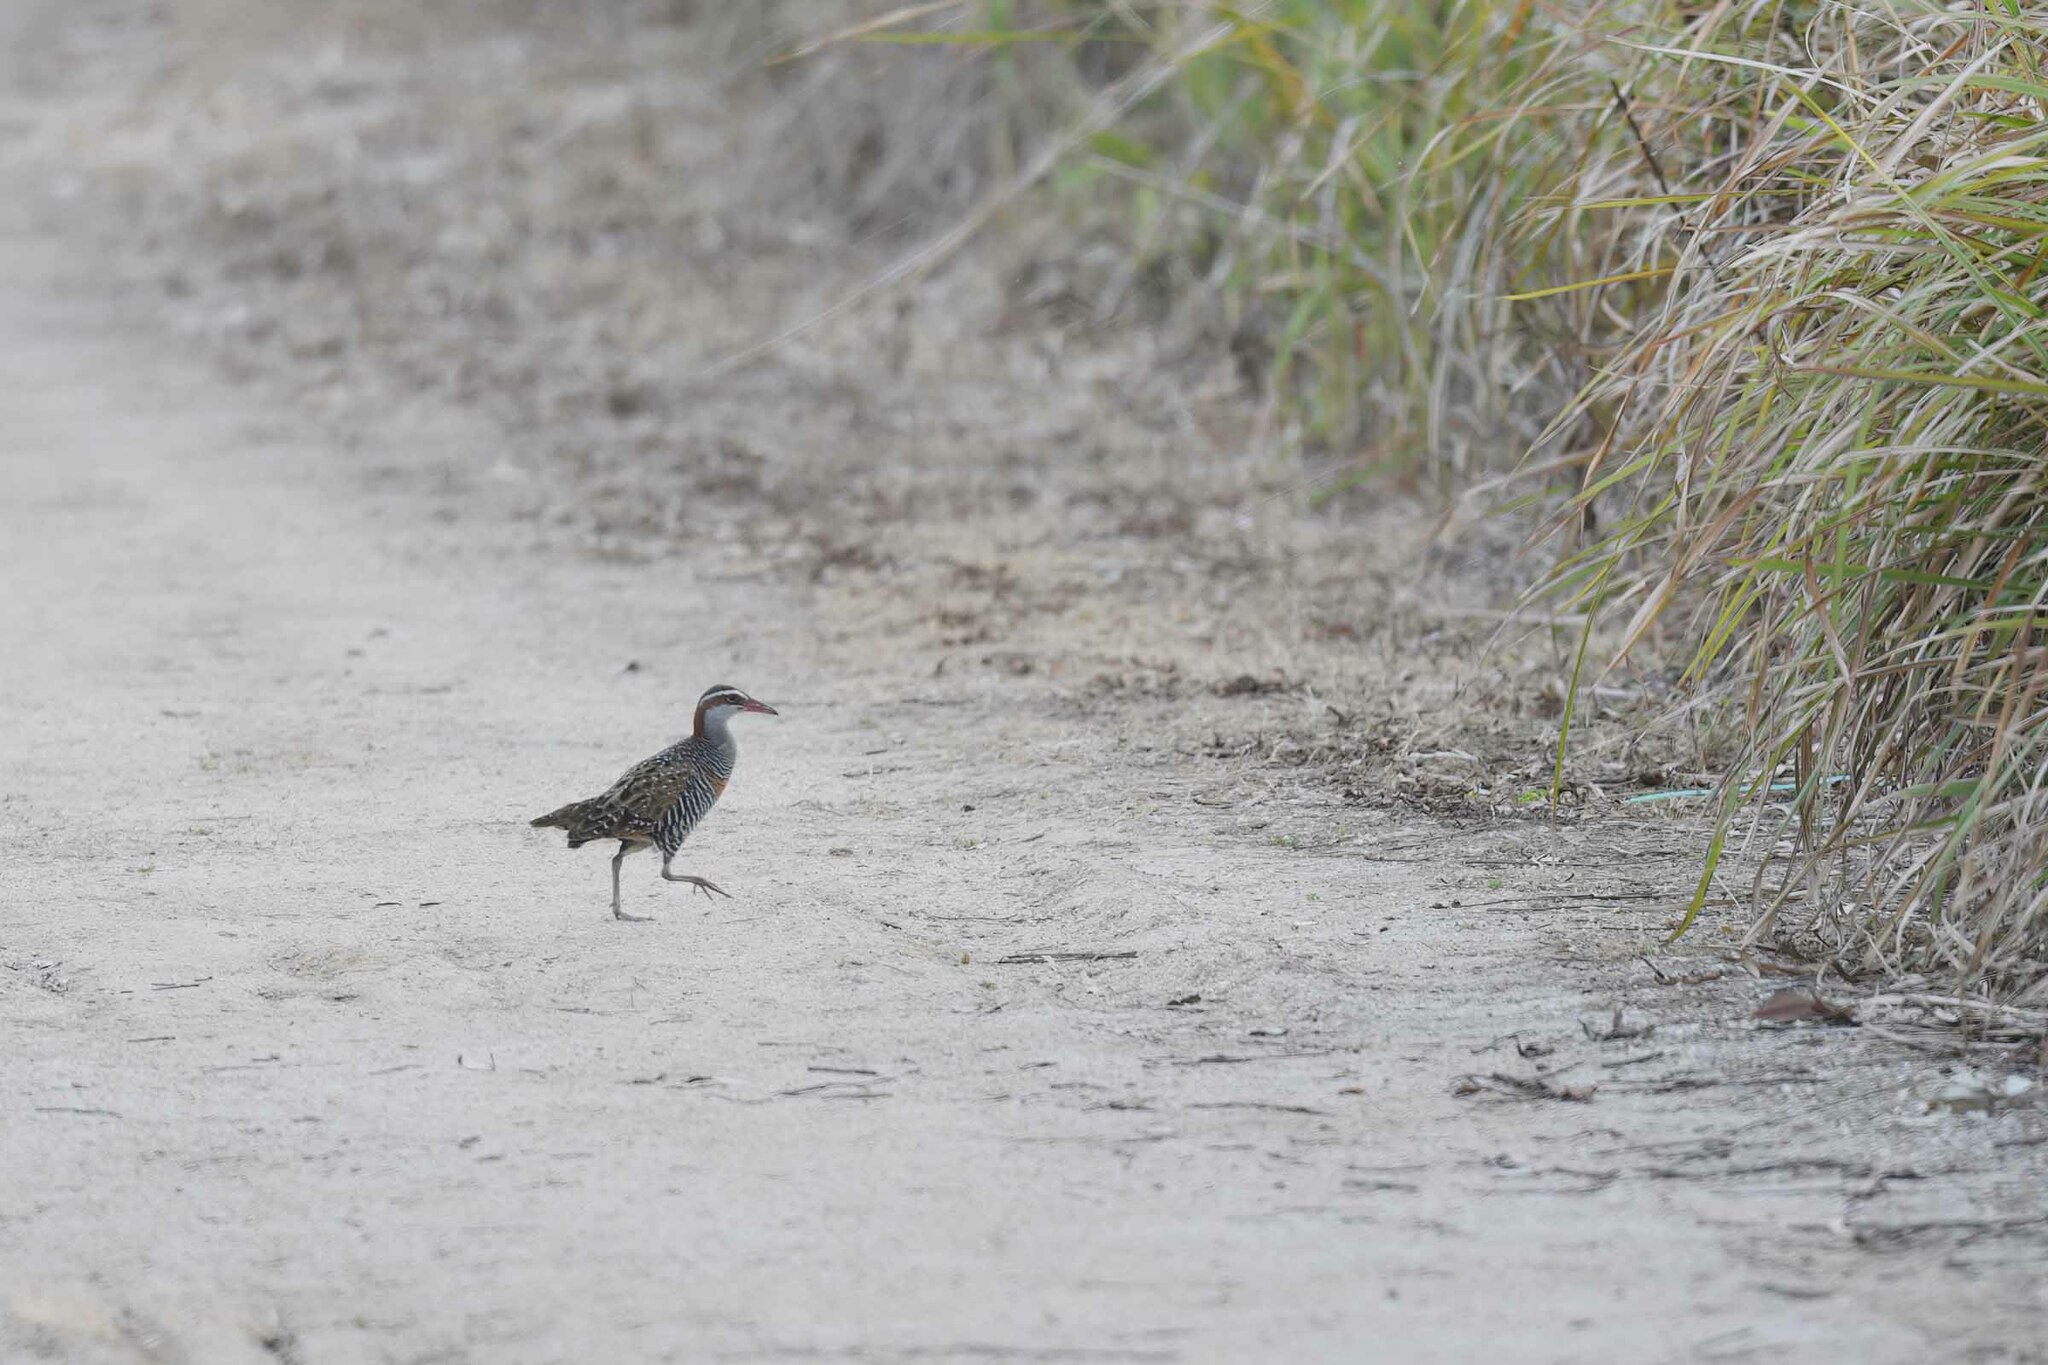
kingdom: Animalia
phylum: Chordata
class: Aves
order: Gruiformes
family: Rallidae
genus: Gallirallus
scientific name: Gallirallus philippensis
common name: Buff-banded rail
